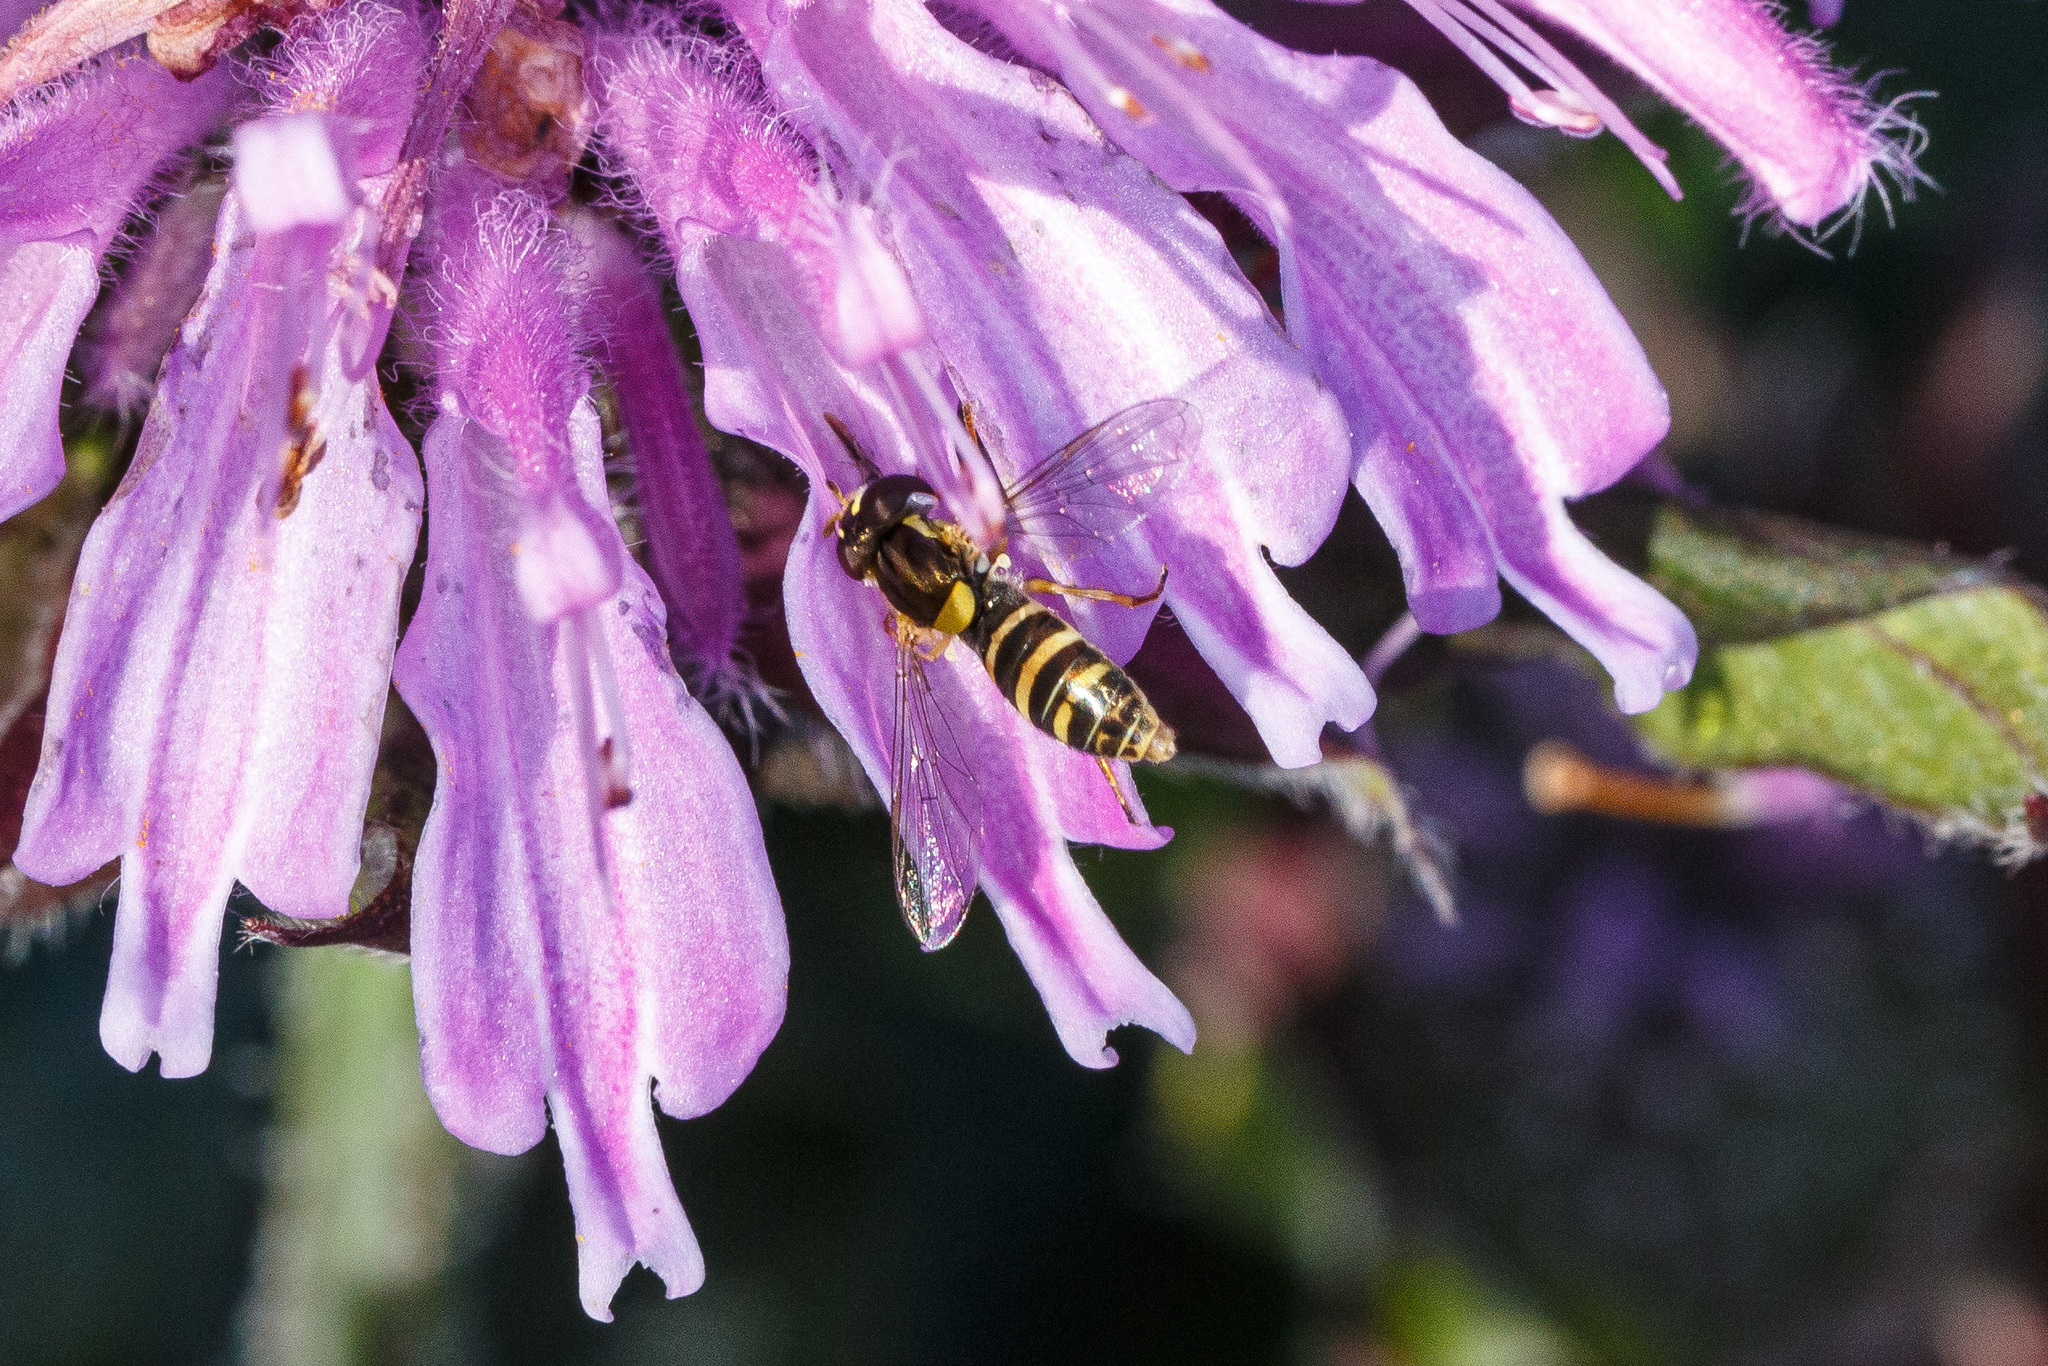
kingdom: Animalia
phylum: Arthropoda
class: Insecta
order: Diptera
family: Syrphidae
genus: Sphaerophoria
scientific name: Sphaerophoria sulphuripes
